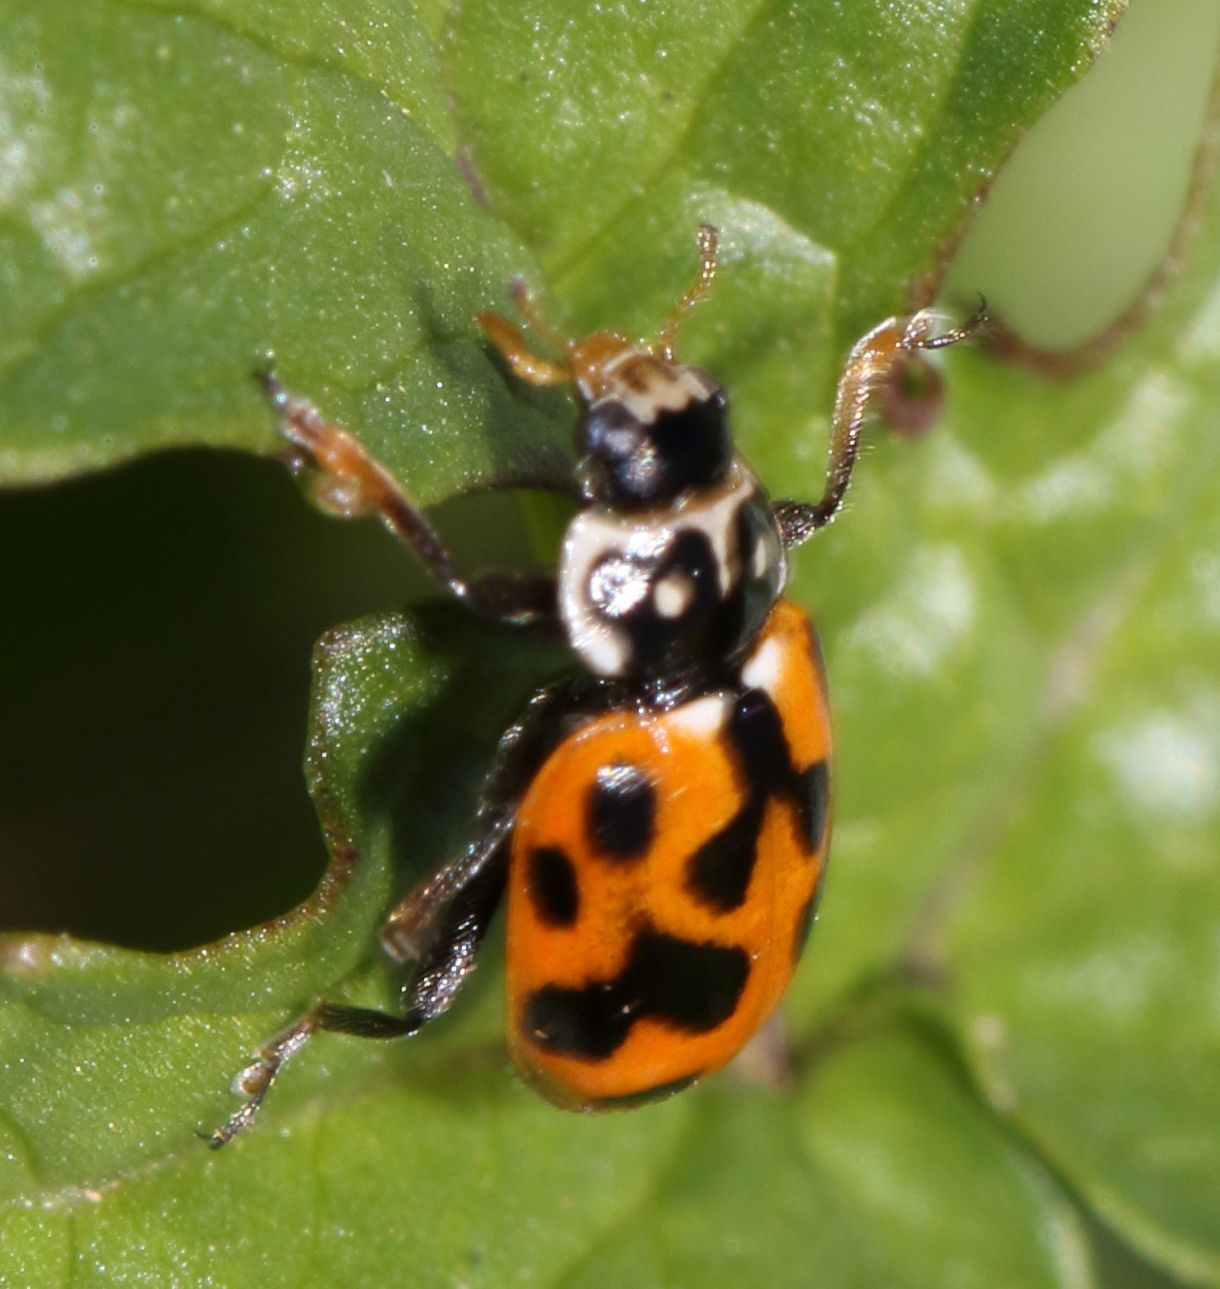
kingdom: Animalia
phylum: Arthropoda
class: Insecta
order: Coleoptera
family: Coccinellidae
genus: Hippodamia
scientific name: Hippodamia variegata
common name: Ladybird beetle
